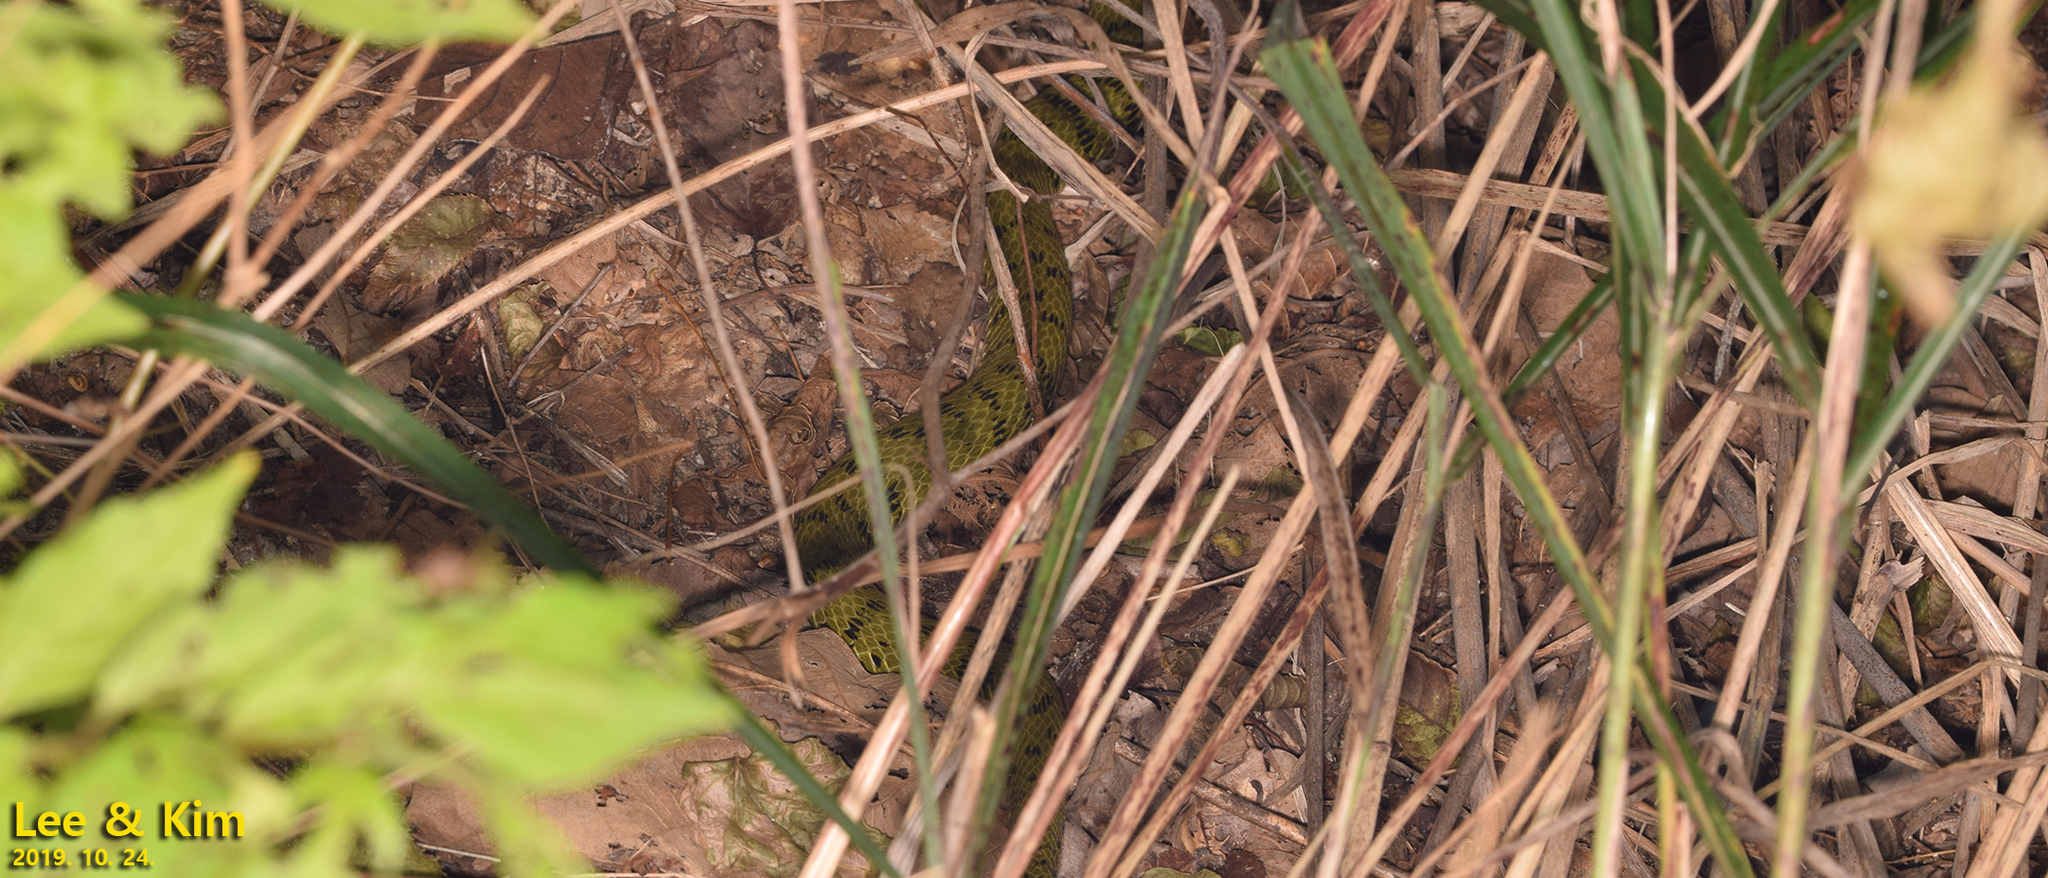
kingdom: Animalia
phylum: Chordata
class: Squamata
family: Colubridae
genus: Rhabdophis
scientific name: Rhabdophis tigrinus
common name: Tiger keelback
